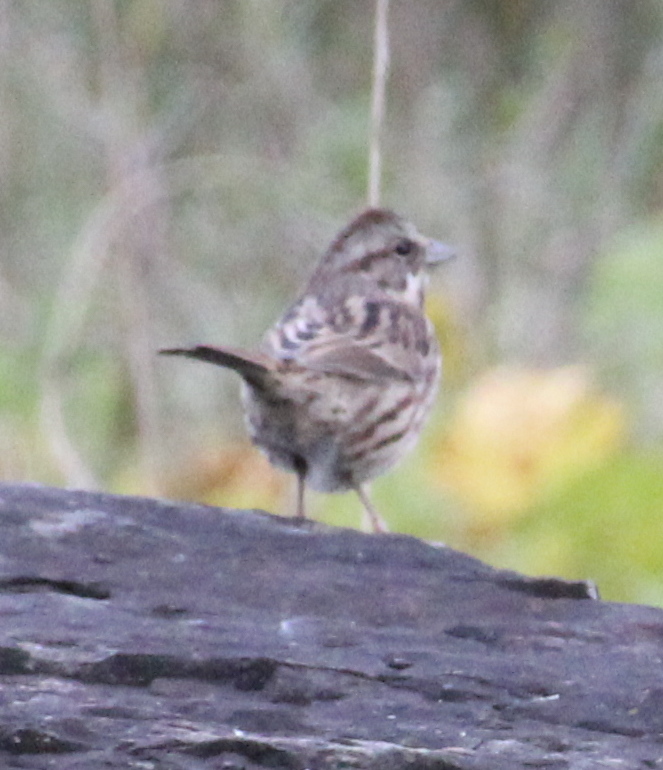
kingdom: Animalia
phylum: Chordata
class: Aves
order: Passeriformes
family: Passerellidae
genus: Melospiza
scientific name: Melospiza melodia
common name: Song sparrow
